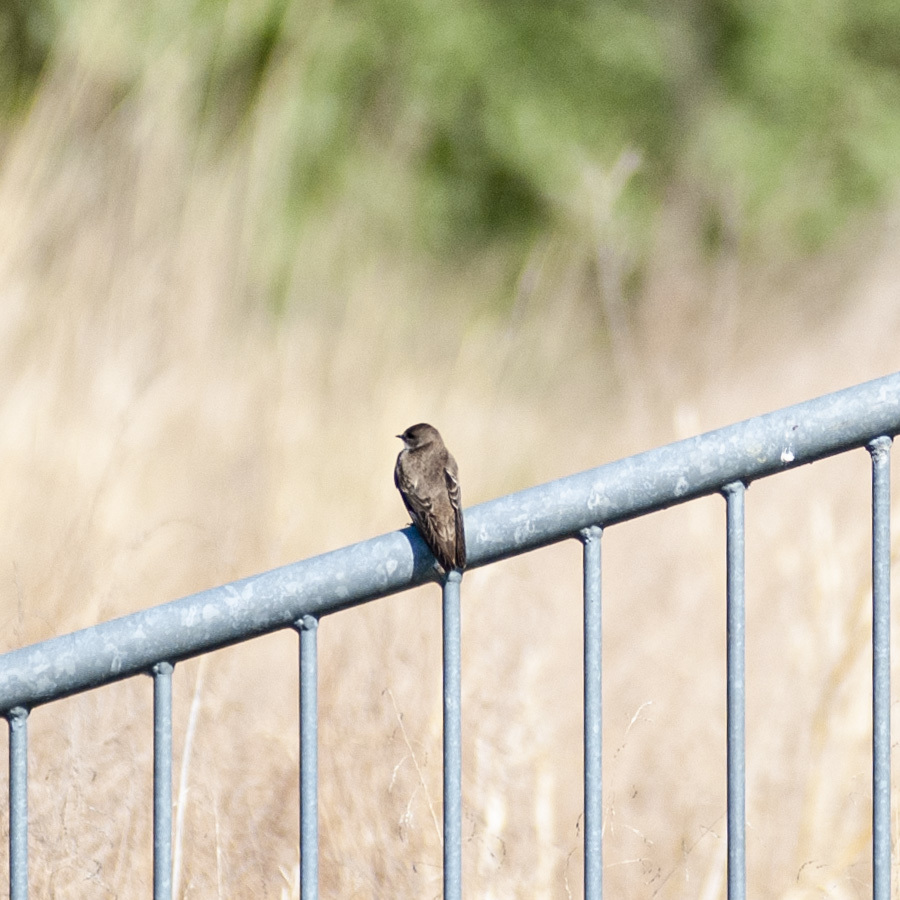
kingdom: Animalia
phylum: Chordata
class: Aves
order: Passeriformes
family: Hirundinidae
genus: Stelgidopteryx
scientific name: Stelgidopteryx serripennis
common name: Northern rough-winged swallow
